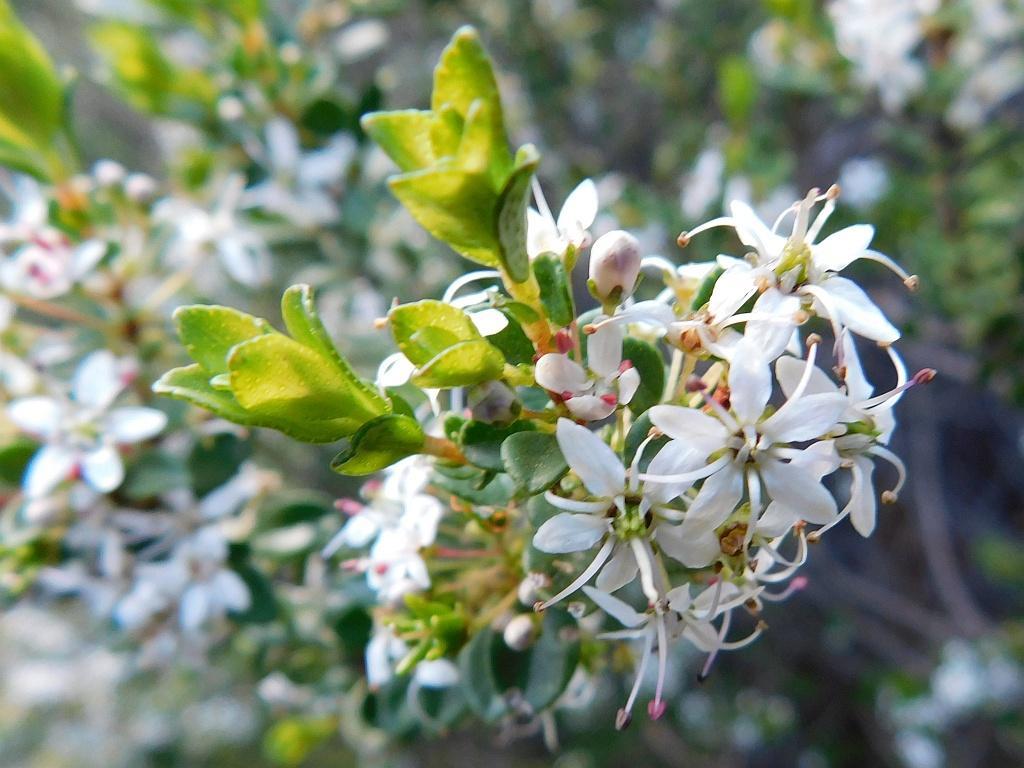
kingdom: Plantae
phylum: Tracheophyta
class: Magnoliopsida
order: Sapindales
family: Rutaceae
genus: Agathosma
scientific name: Agathosma ovata
